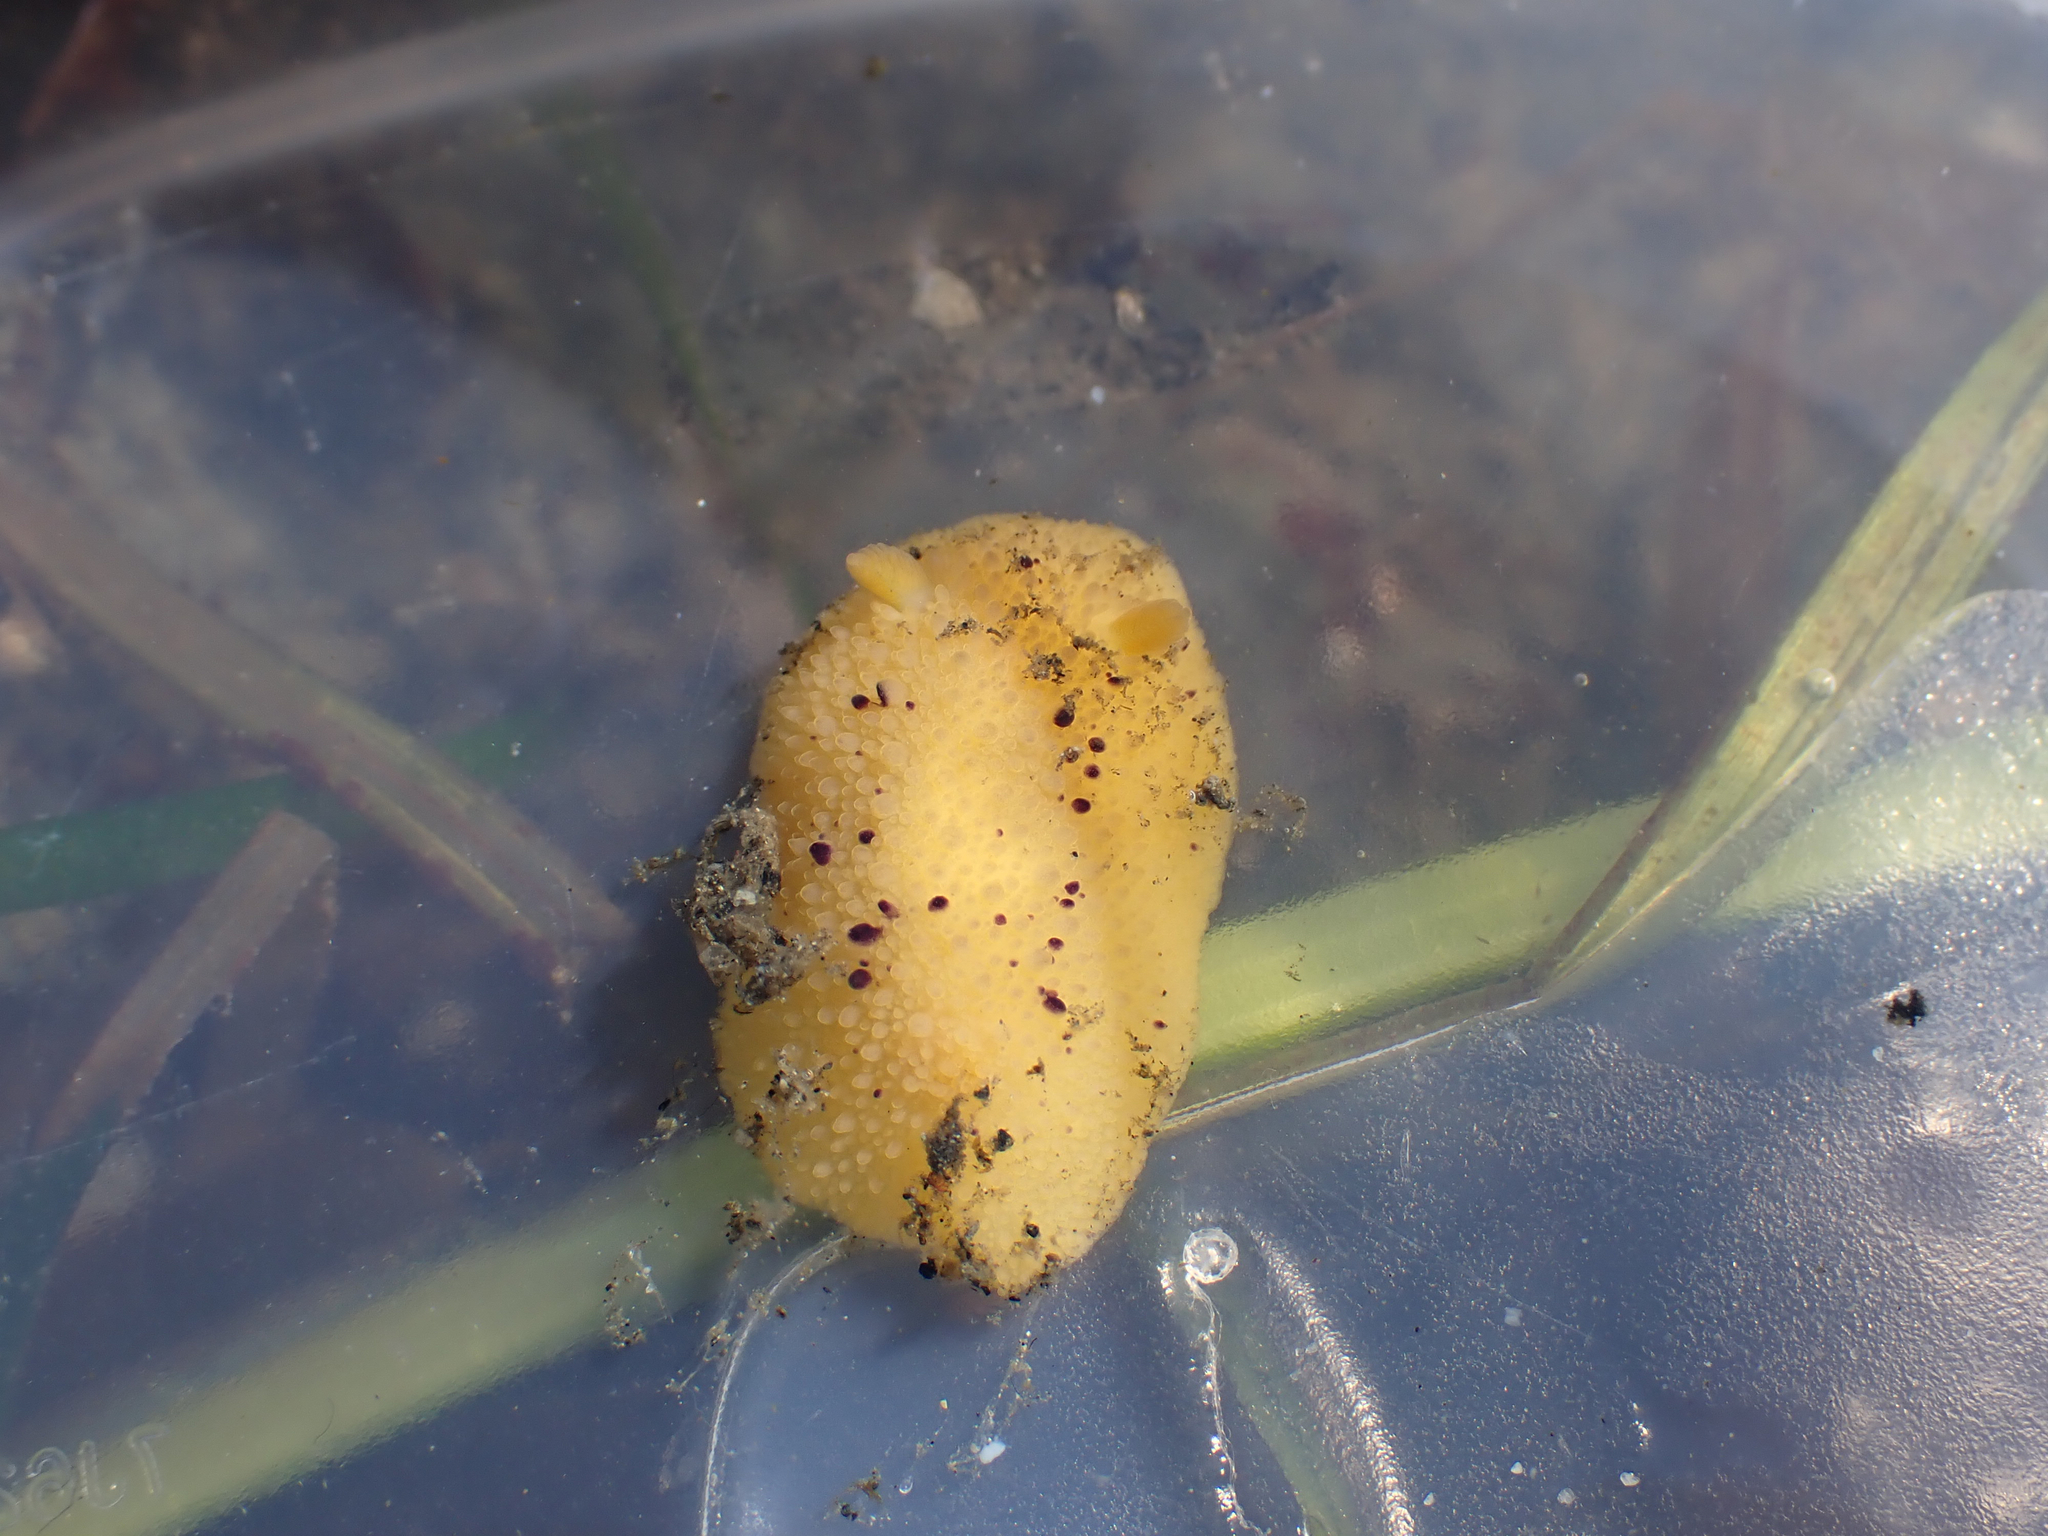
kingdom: Animalia
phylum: Mollusca
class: Gastropoda
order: Nudibranchia
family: Dorididae
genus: Doris
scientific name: Doris montereyensis
